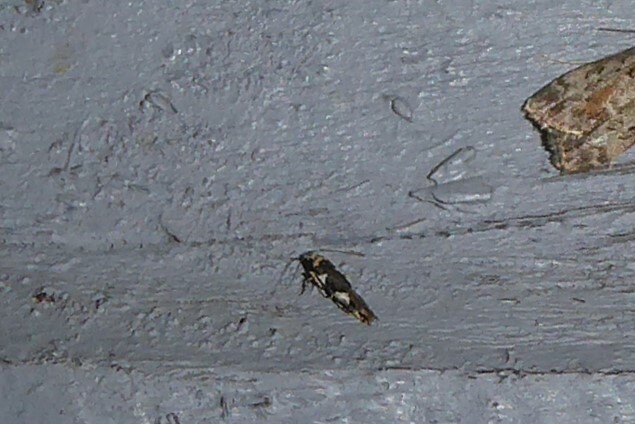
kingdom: Animalia
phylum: Arthropoda
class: Insecta
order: Lepidoptera
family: Cosmopterigidae
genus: Pyroderces
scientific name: Pyroderces deamatella
